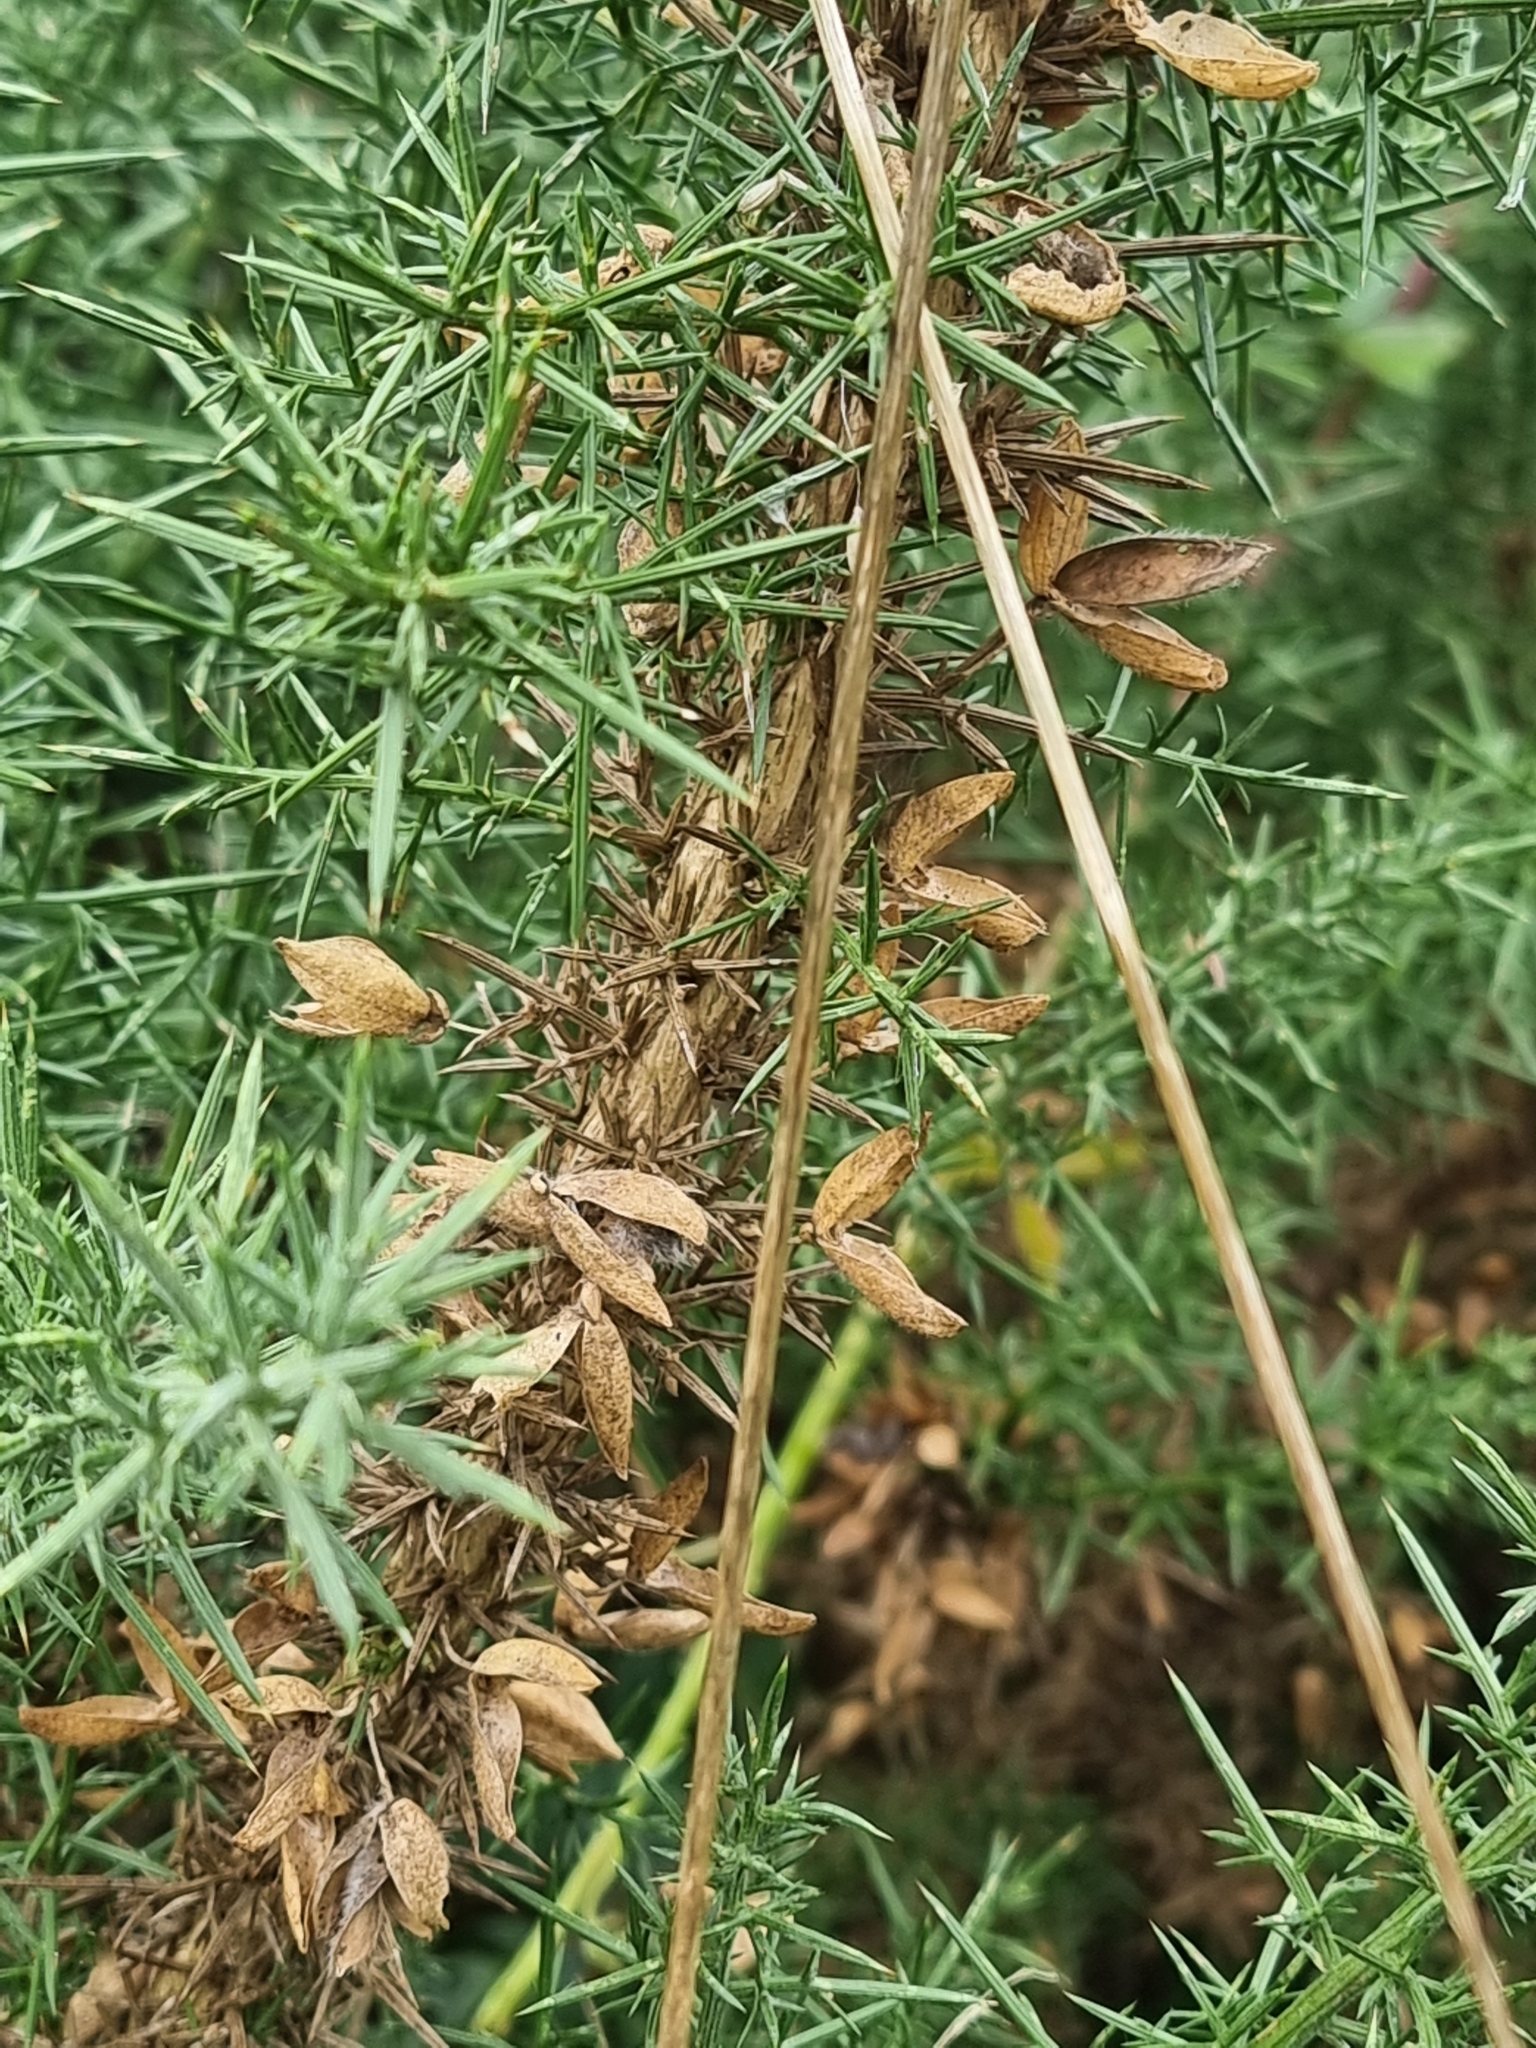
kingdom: Plantae
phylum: Tracheophyta
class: Magnoliopsida
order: Fabales
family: Fabaceae
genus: Ulex
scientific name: Ulex europaeus
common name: Common gorse
